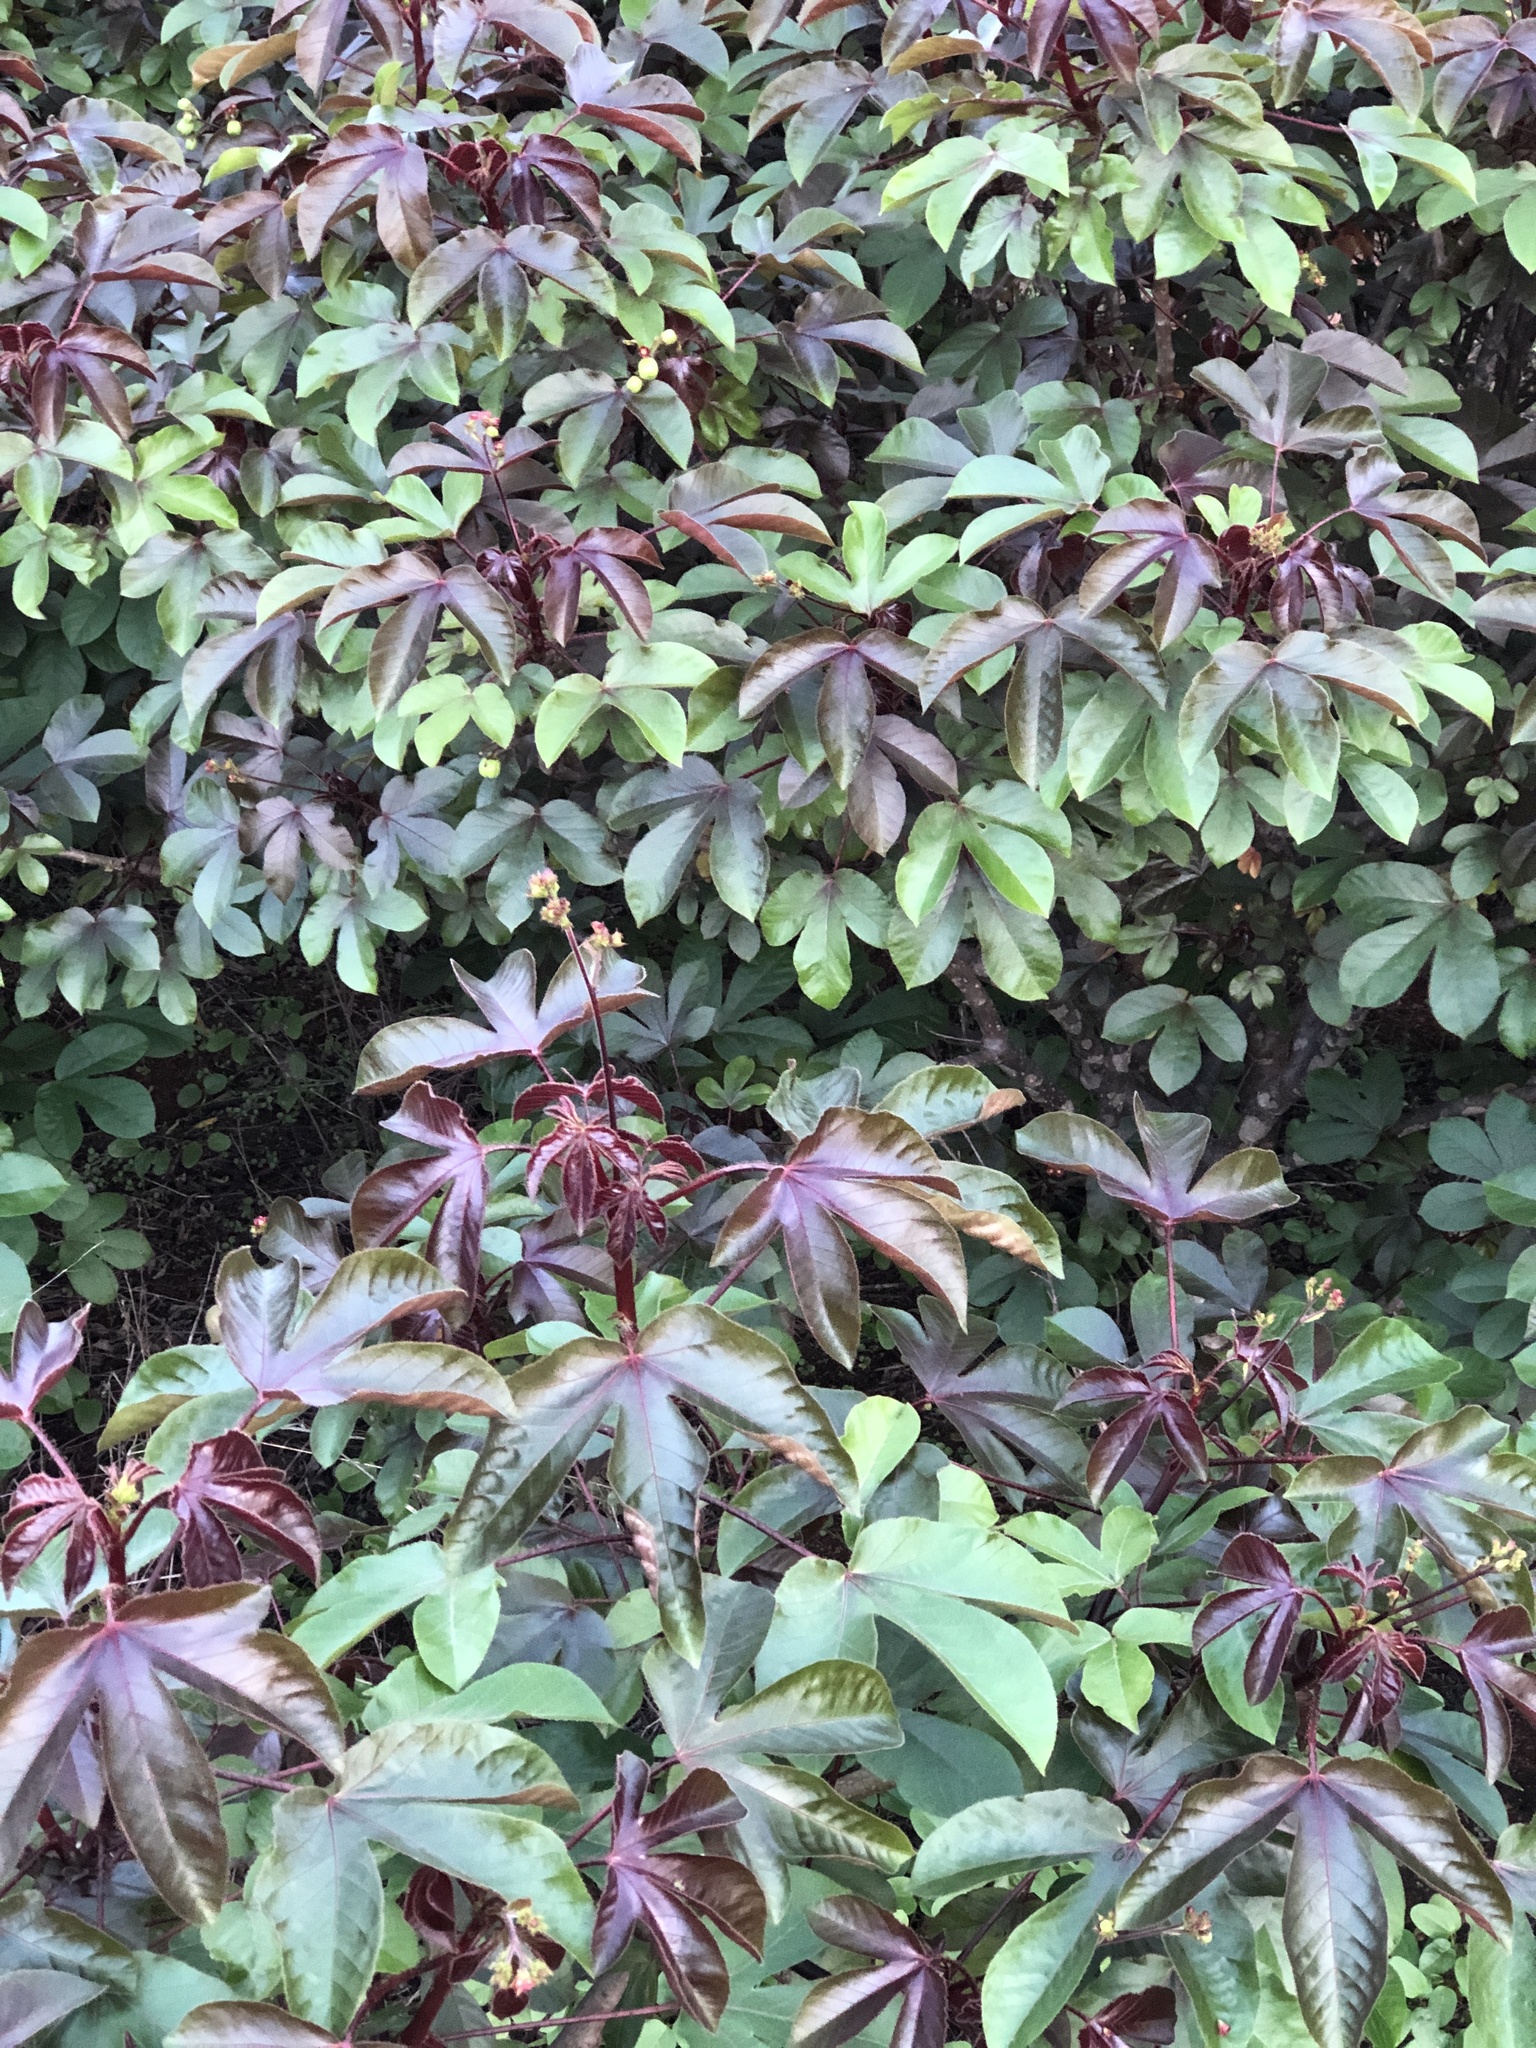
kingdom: Plantae
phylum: Tracheophyta
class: Magnoliopsida
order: Malpighiales
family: Euphorbiaceae
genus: Jatropha
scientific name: Jatropha gossypiifolia
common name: Bellyache bush
